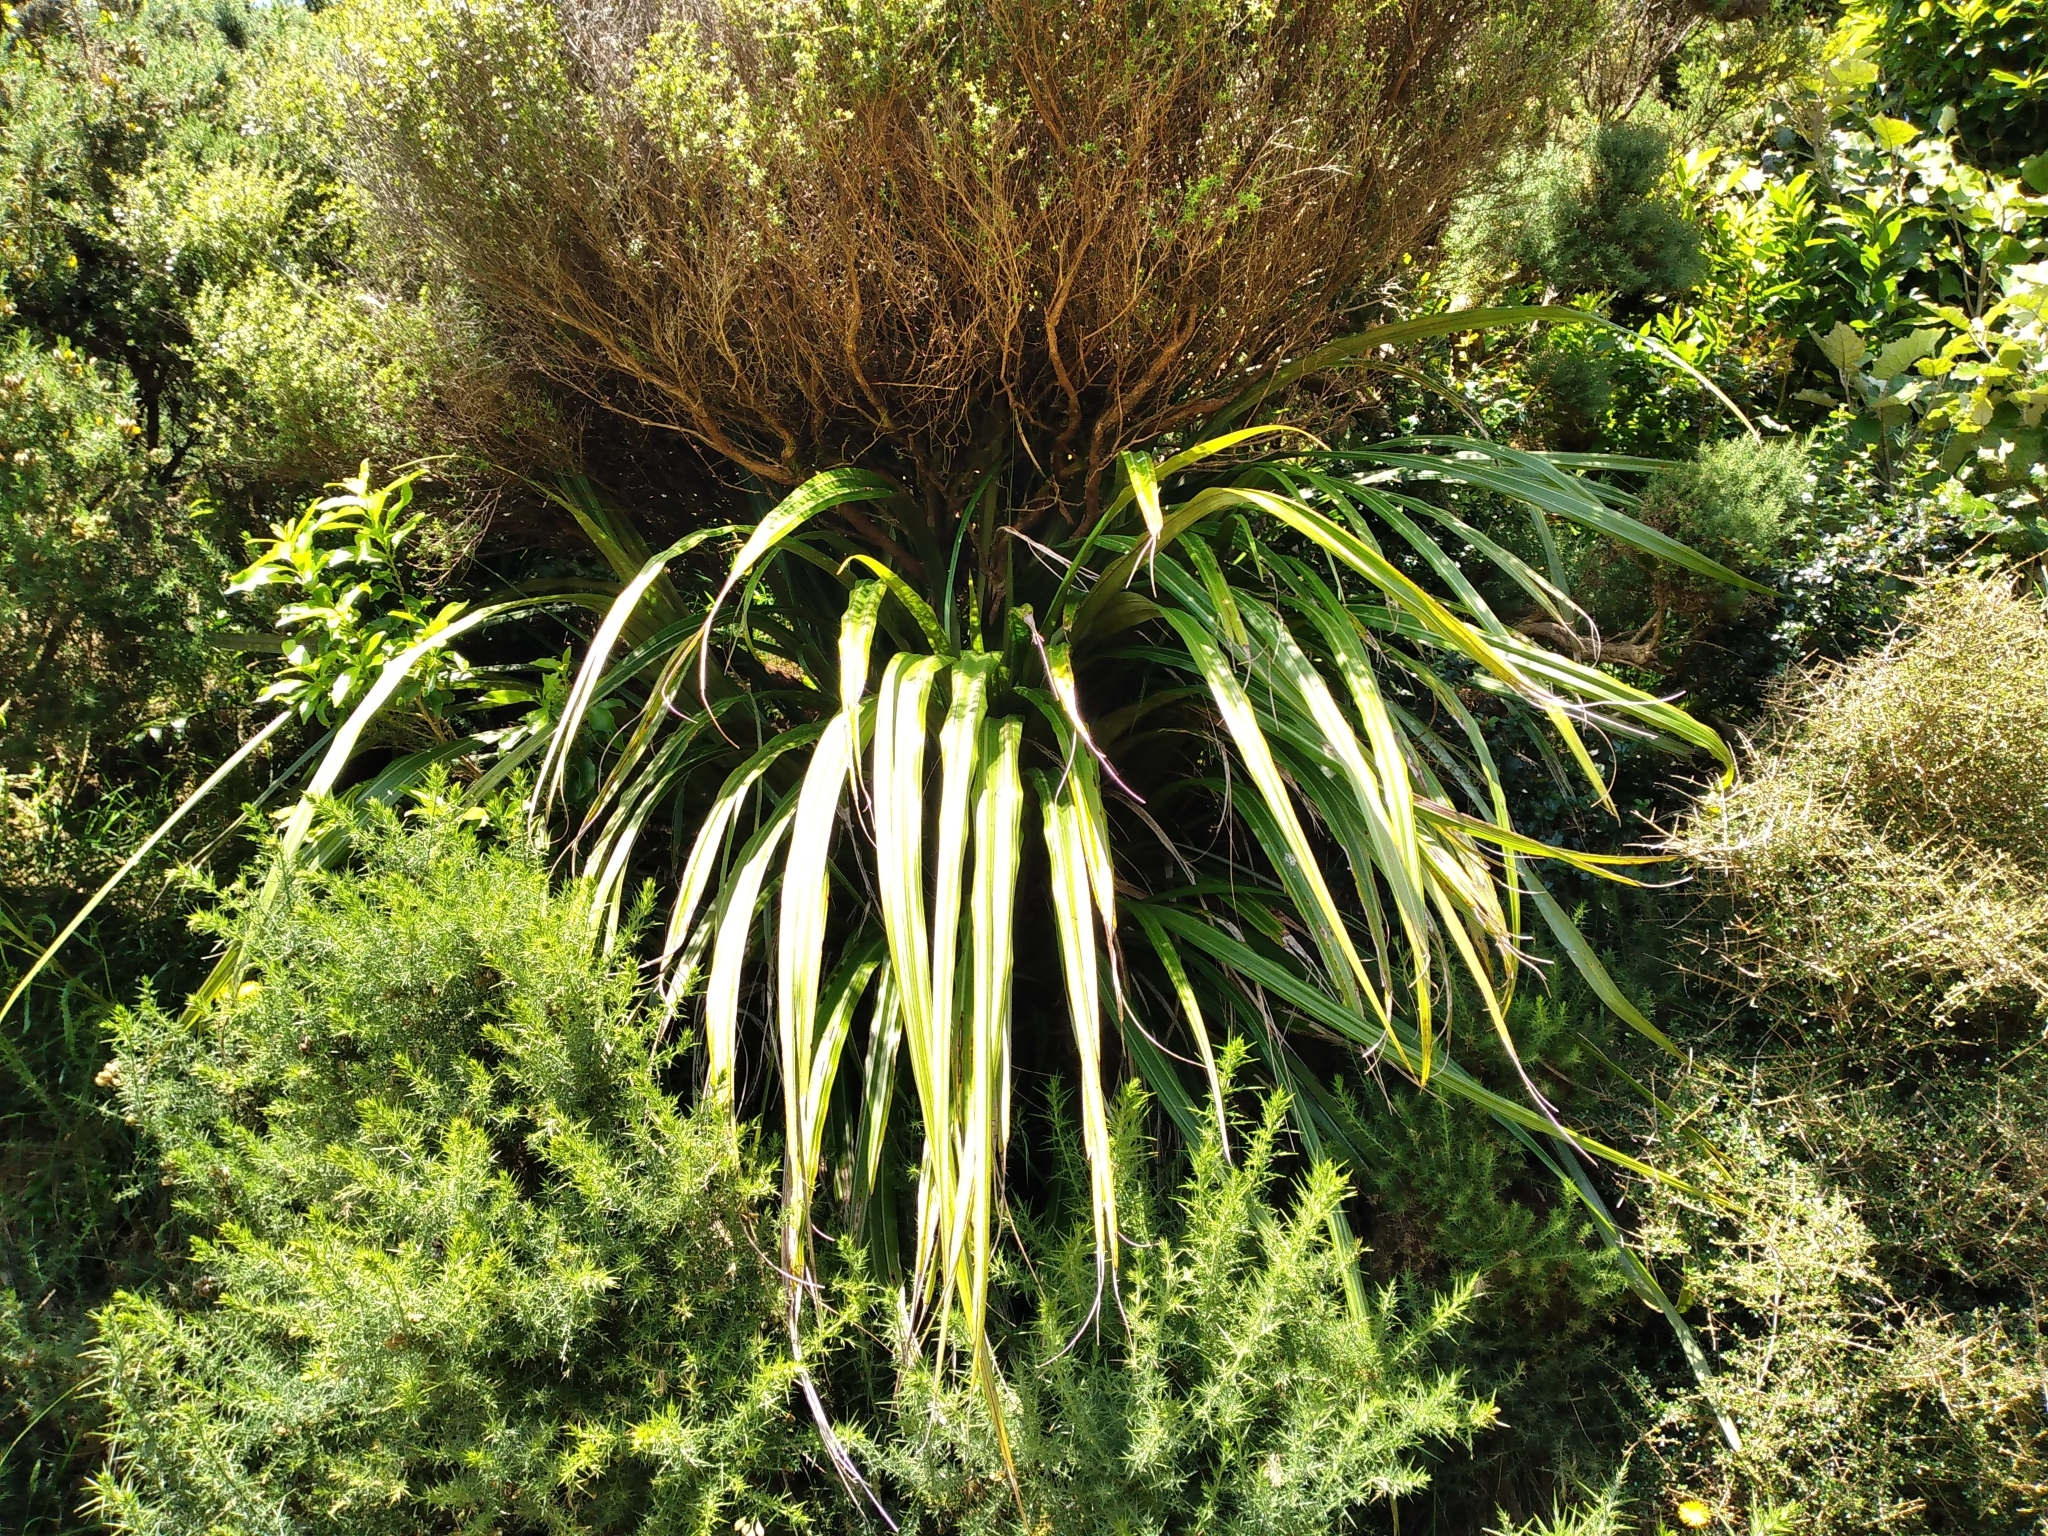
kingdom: Plantae
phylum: Tracheophyta
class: Liliopsida
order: Asparagales
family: Asteliaceae
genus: Astelia
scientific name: Astelia fragrans
